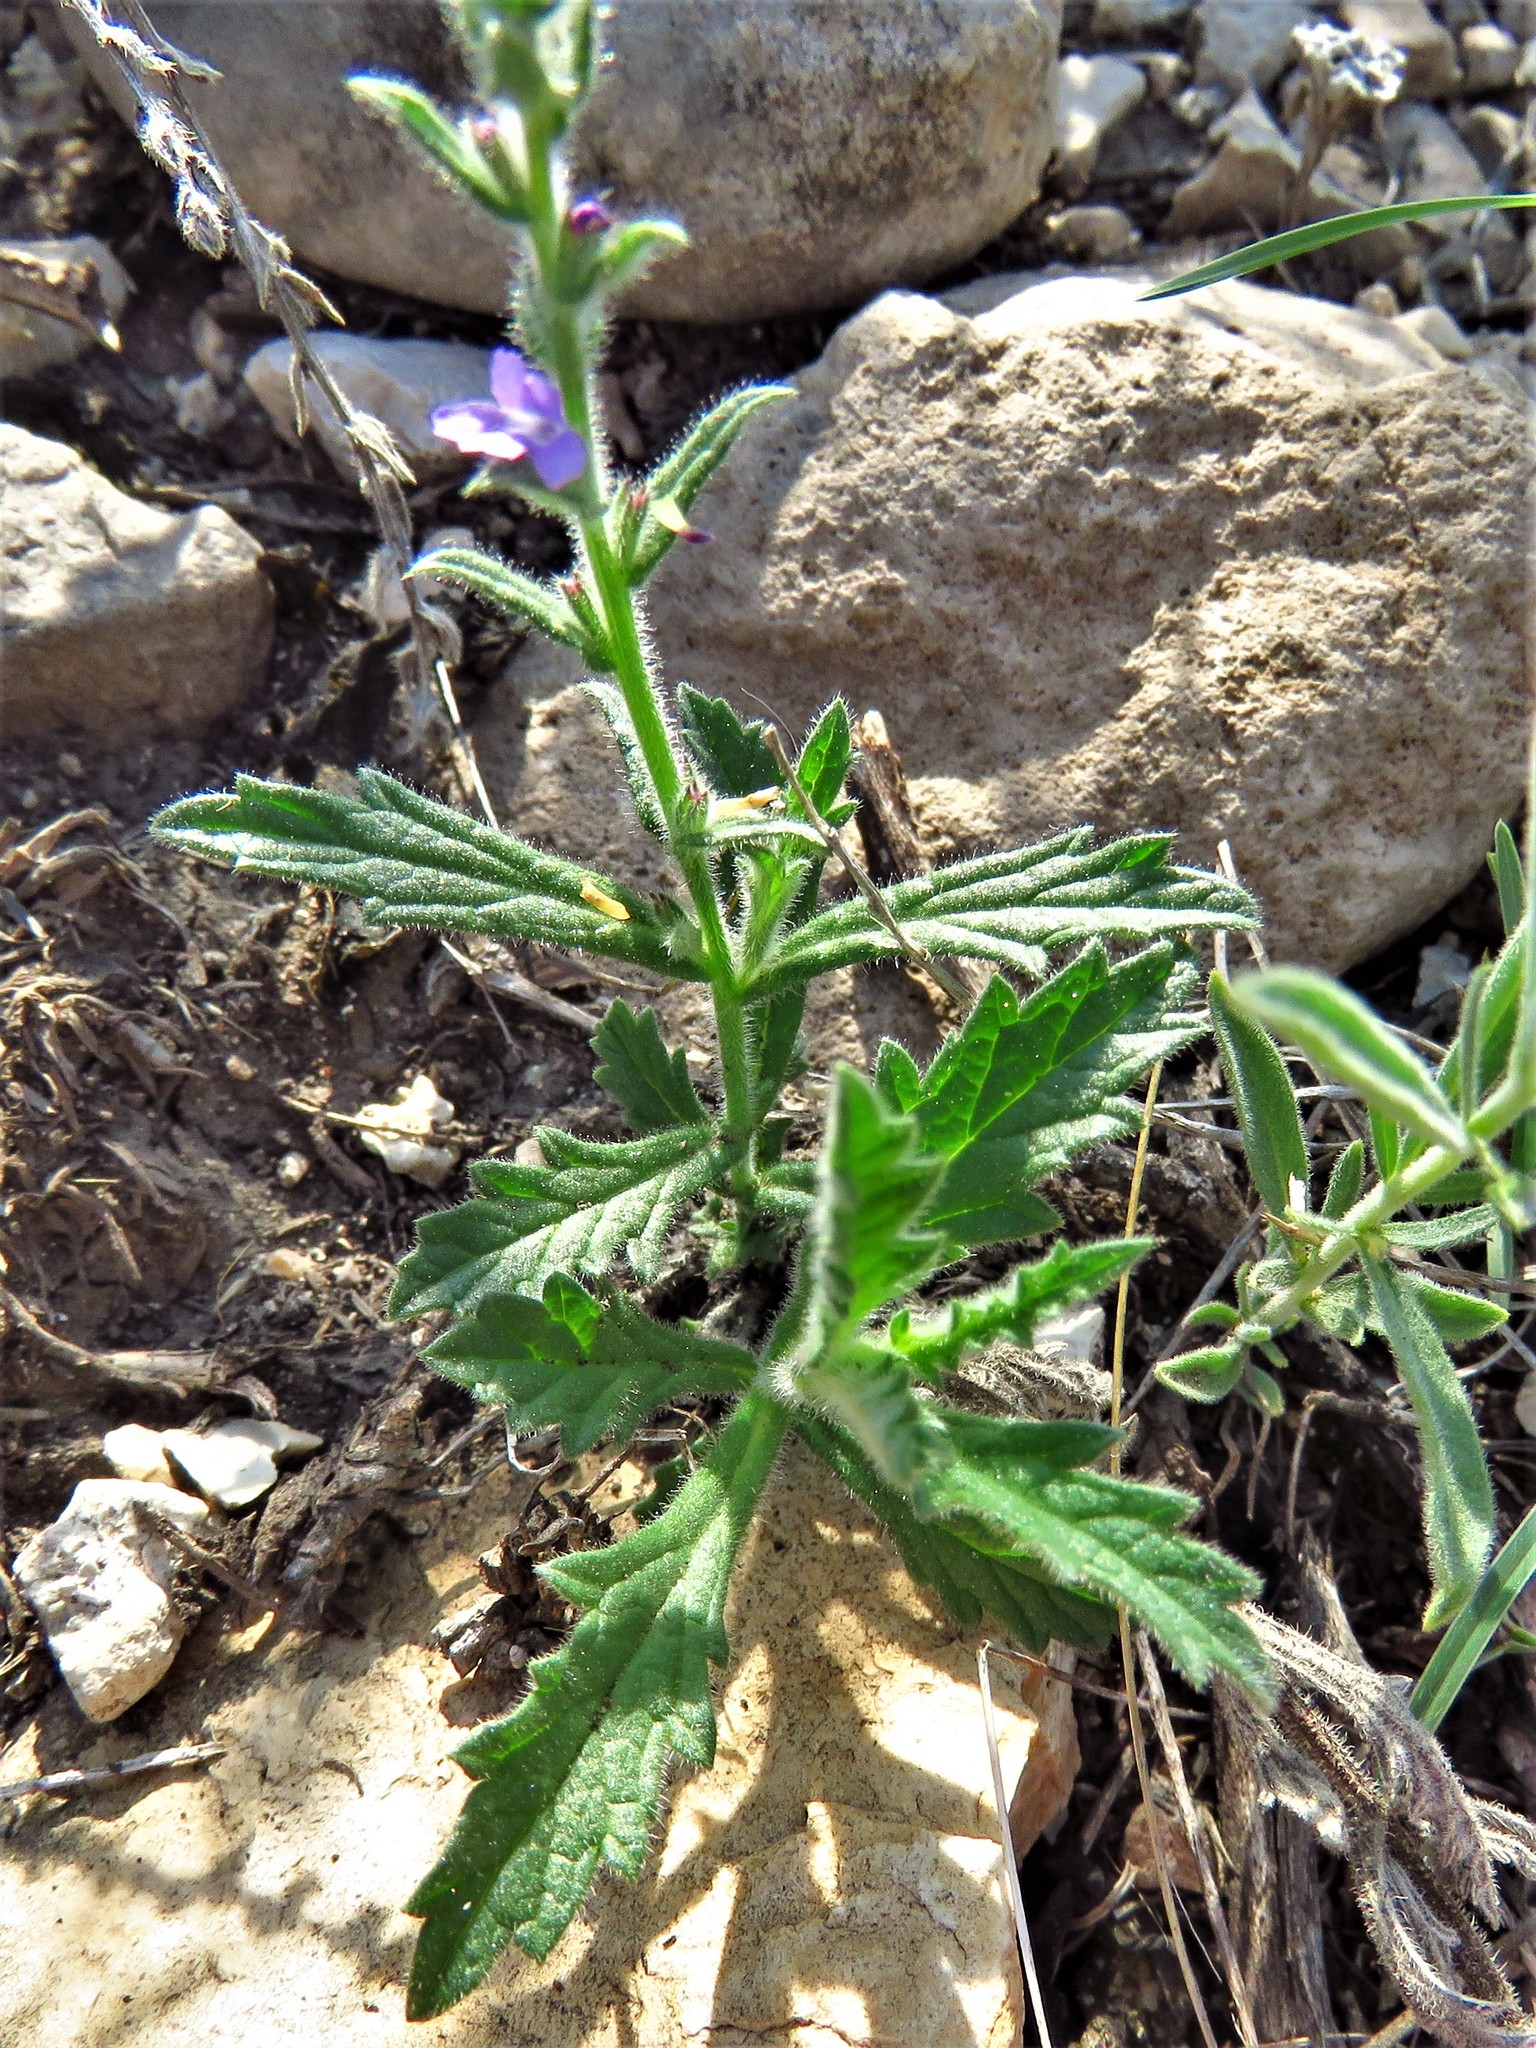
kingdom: Plantae
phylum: Tracheophyta
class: Magnoliopsida
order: Lamiales
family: Verbenaceae
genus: Verbena
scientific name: Verbena canescens
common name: Gray vervain
